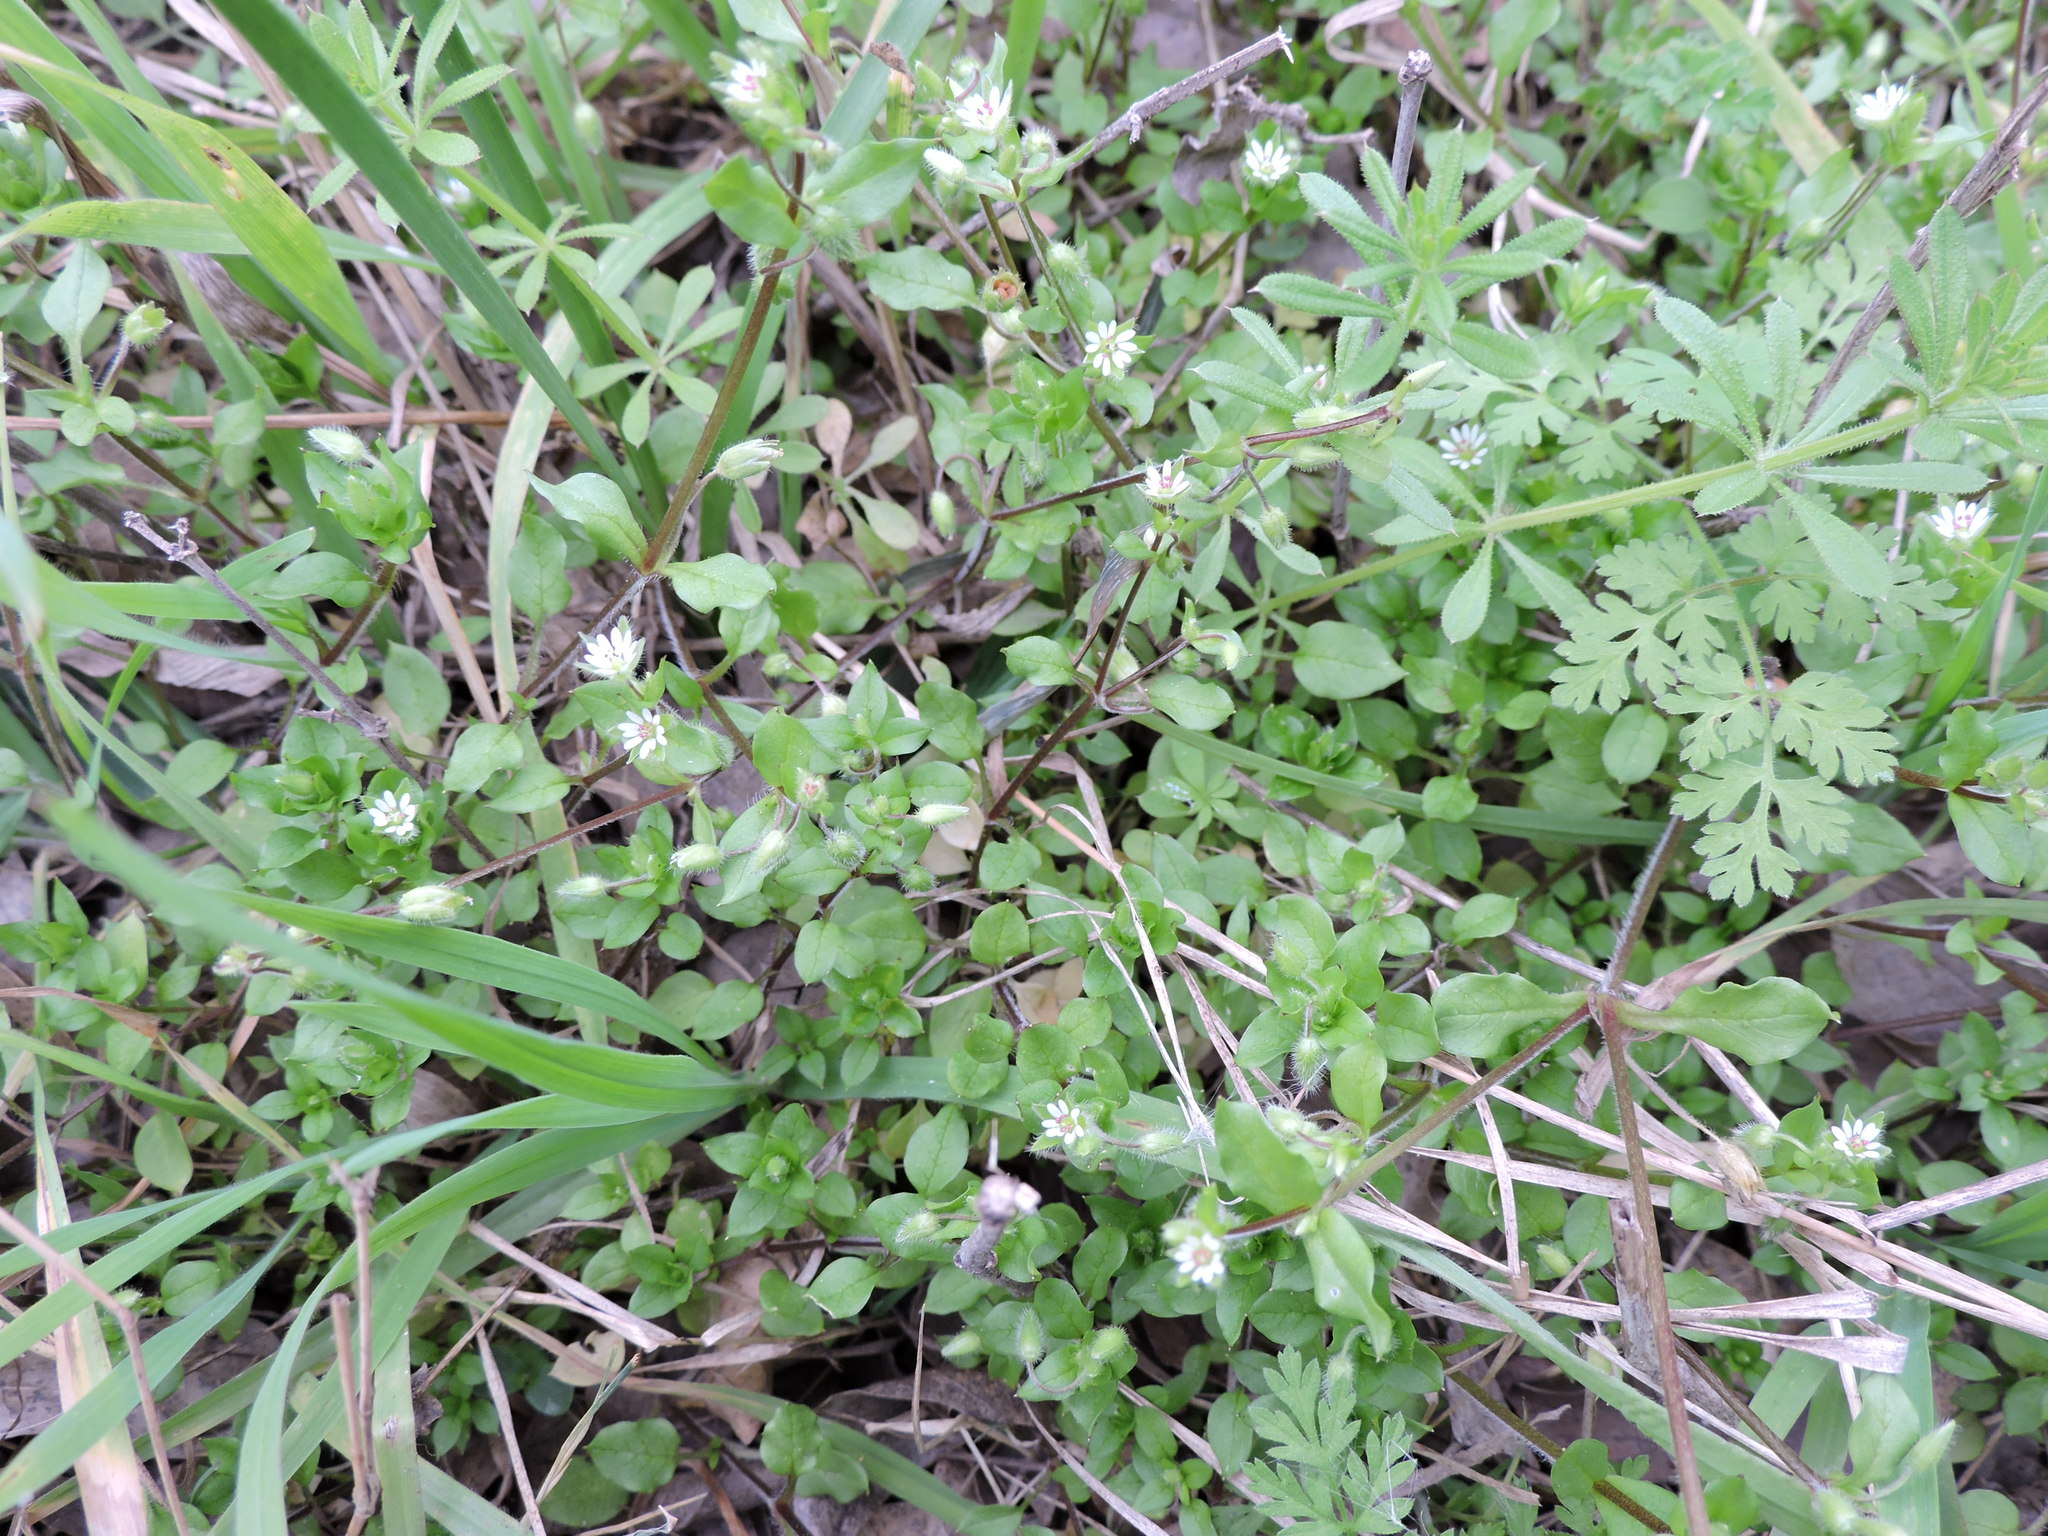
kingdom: Plantae
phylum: Tracheophyta
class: Magnoliopsida
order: Caryophyllales
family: Caryophyllaceae
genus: Stellaria
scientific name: Stellaria media
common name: Common chickweed
